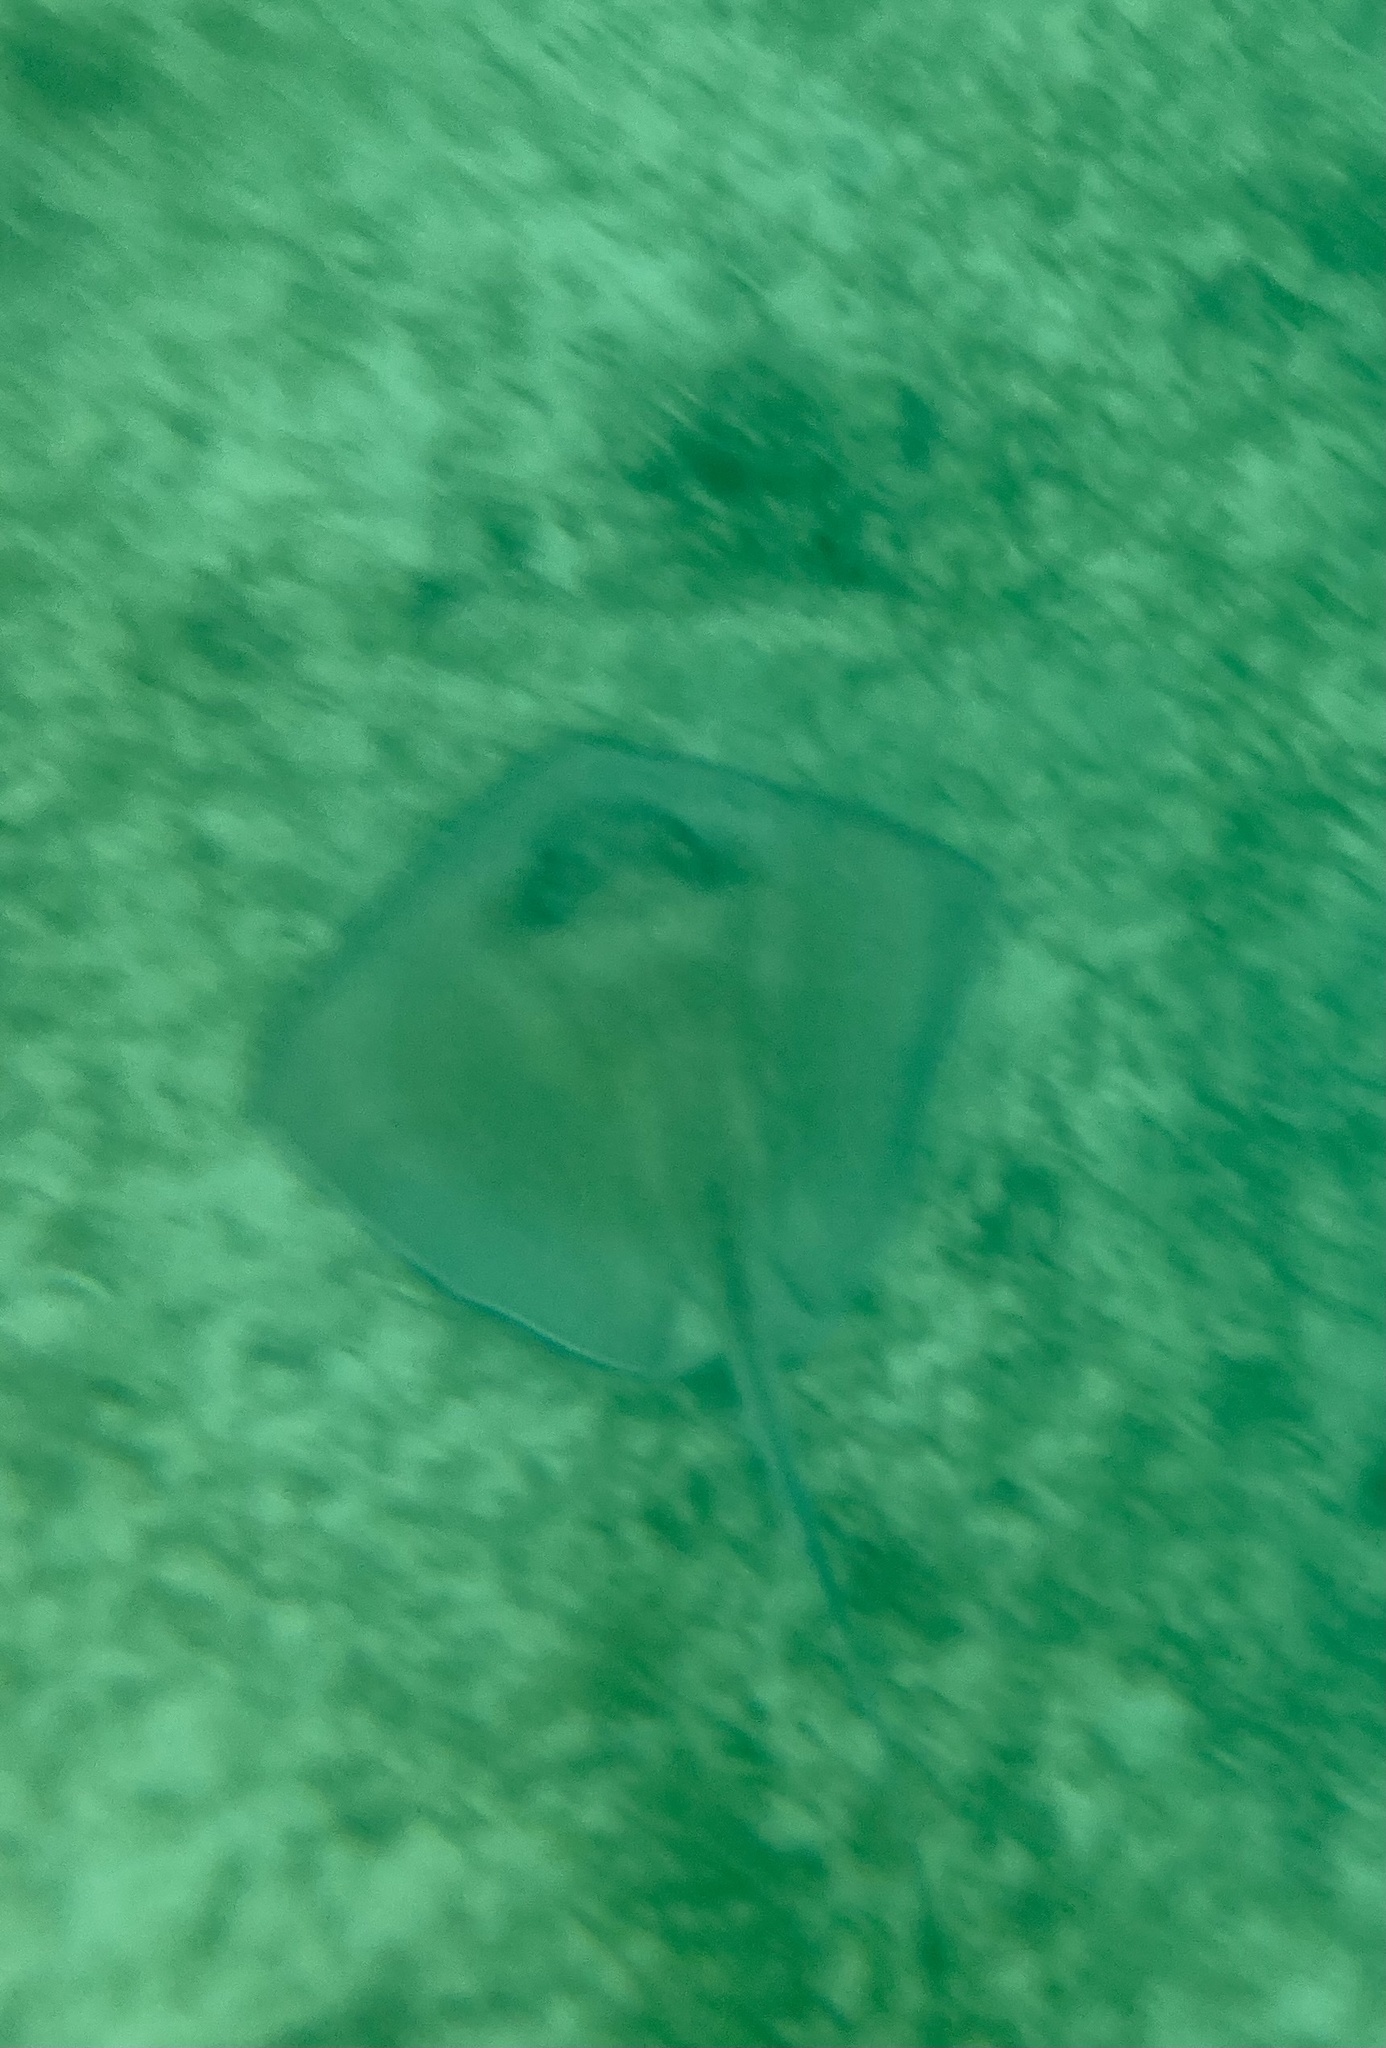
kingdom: Animalia
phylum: Chordata
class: Elasmobranchii
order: Myliobatiformes
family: Dasyatidae
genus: Hypanus
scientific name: Hypanus americanus
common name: Southern stingray
